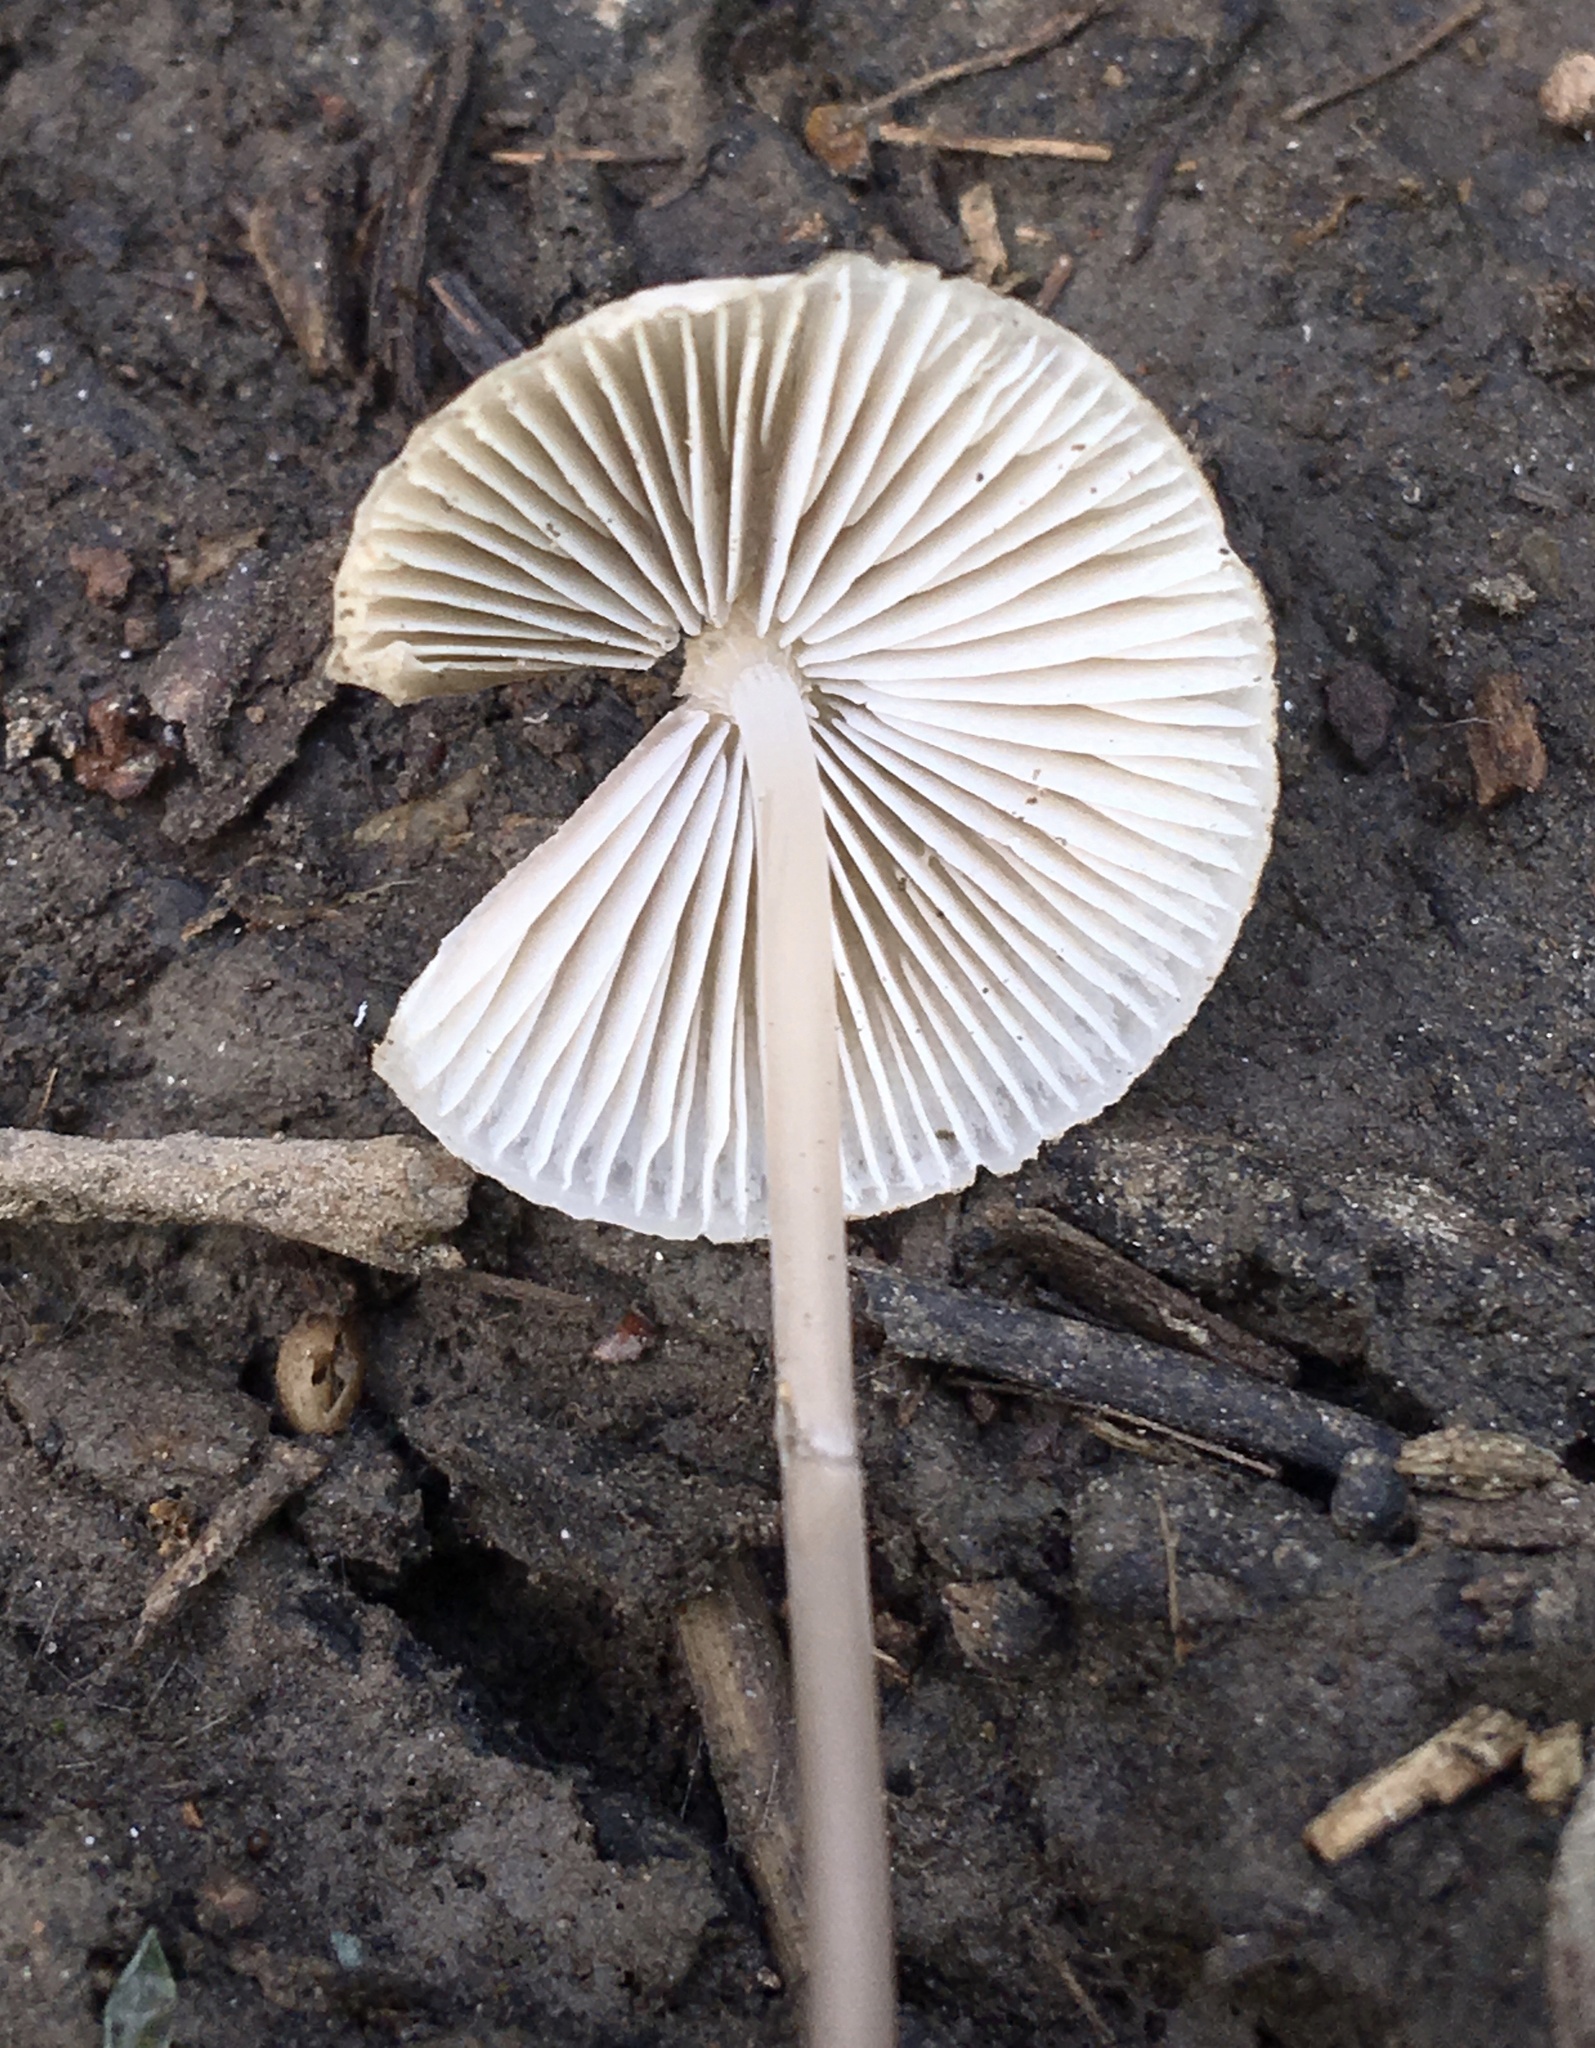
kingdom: Fungi
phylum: Basidiomycota
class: Agaricomycetes
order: Agaricales
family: Mycenaceae
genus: Mycena
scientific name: Mycena filopes
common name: Iodine bonnet
